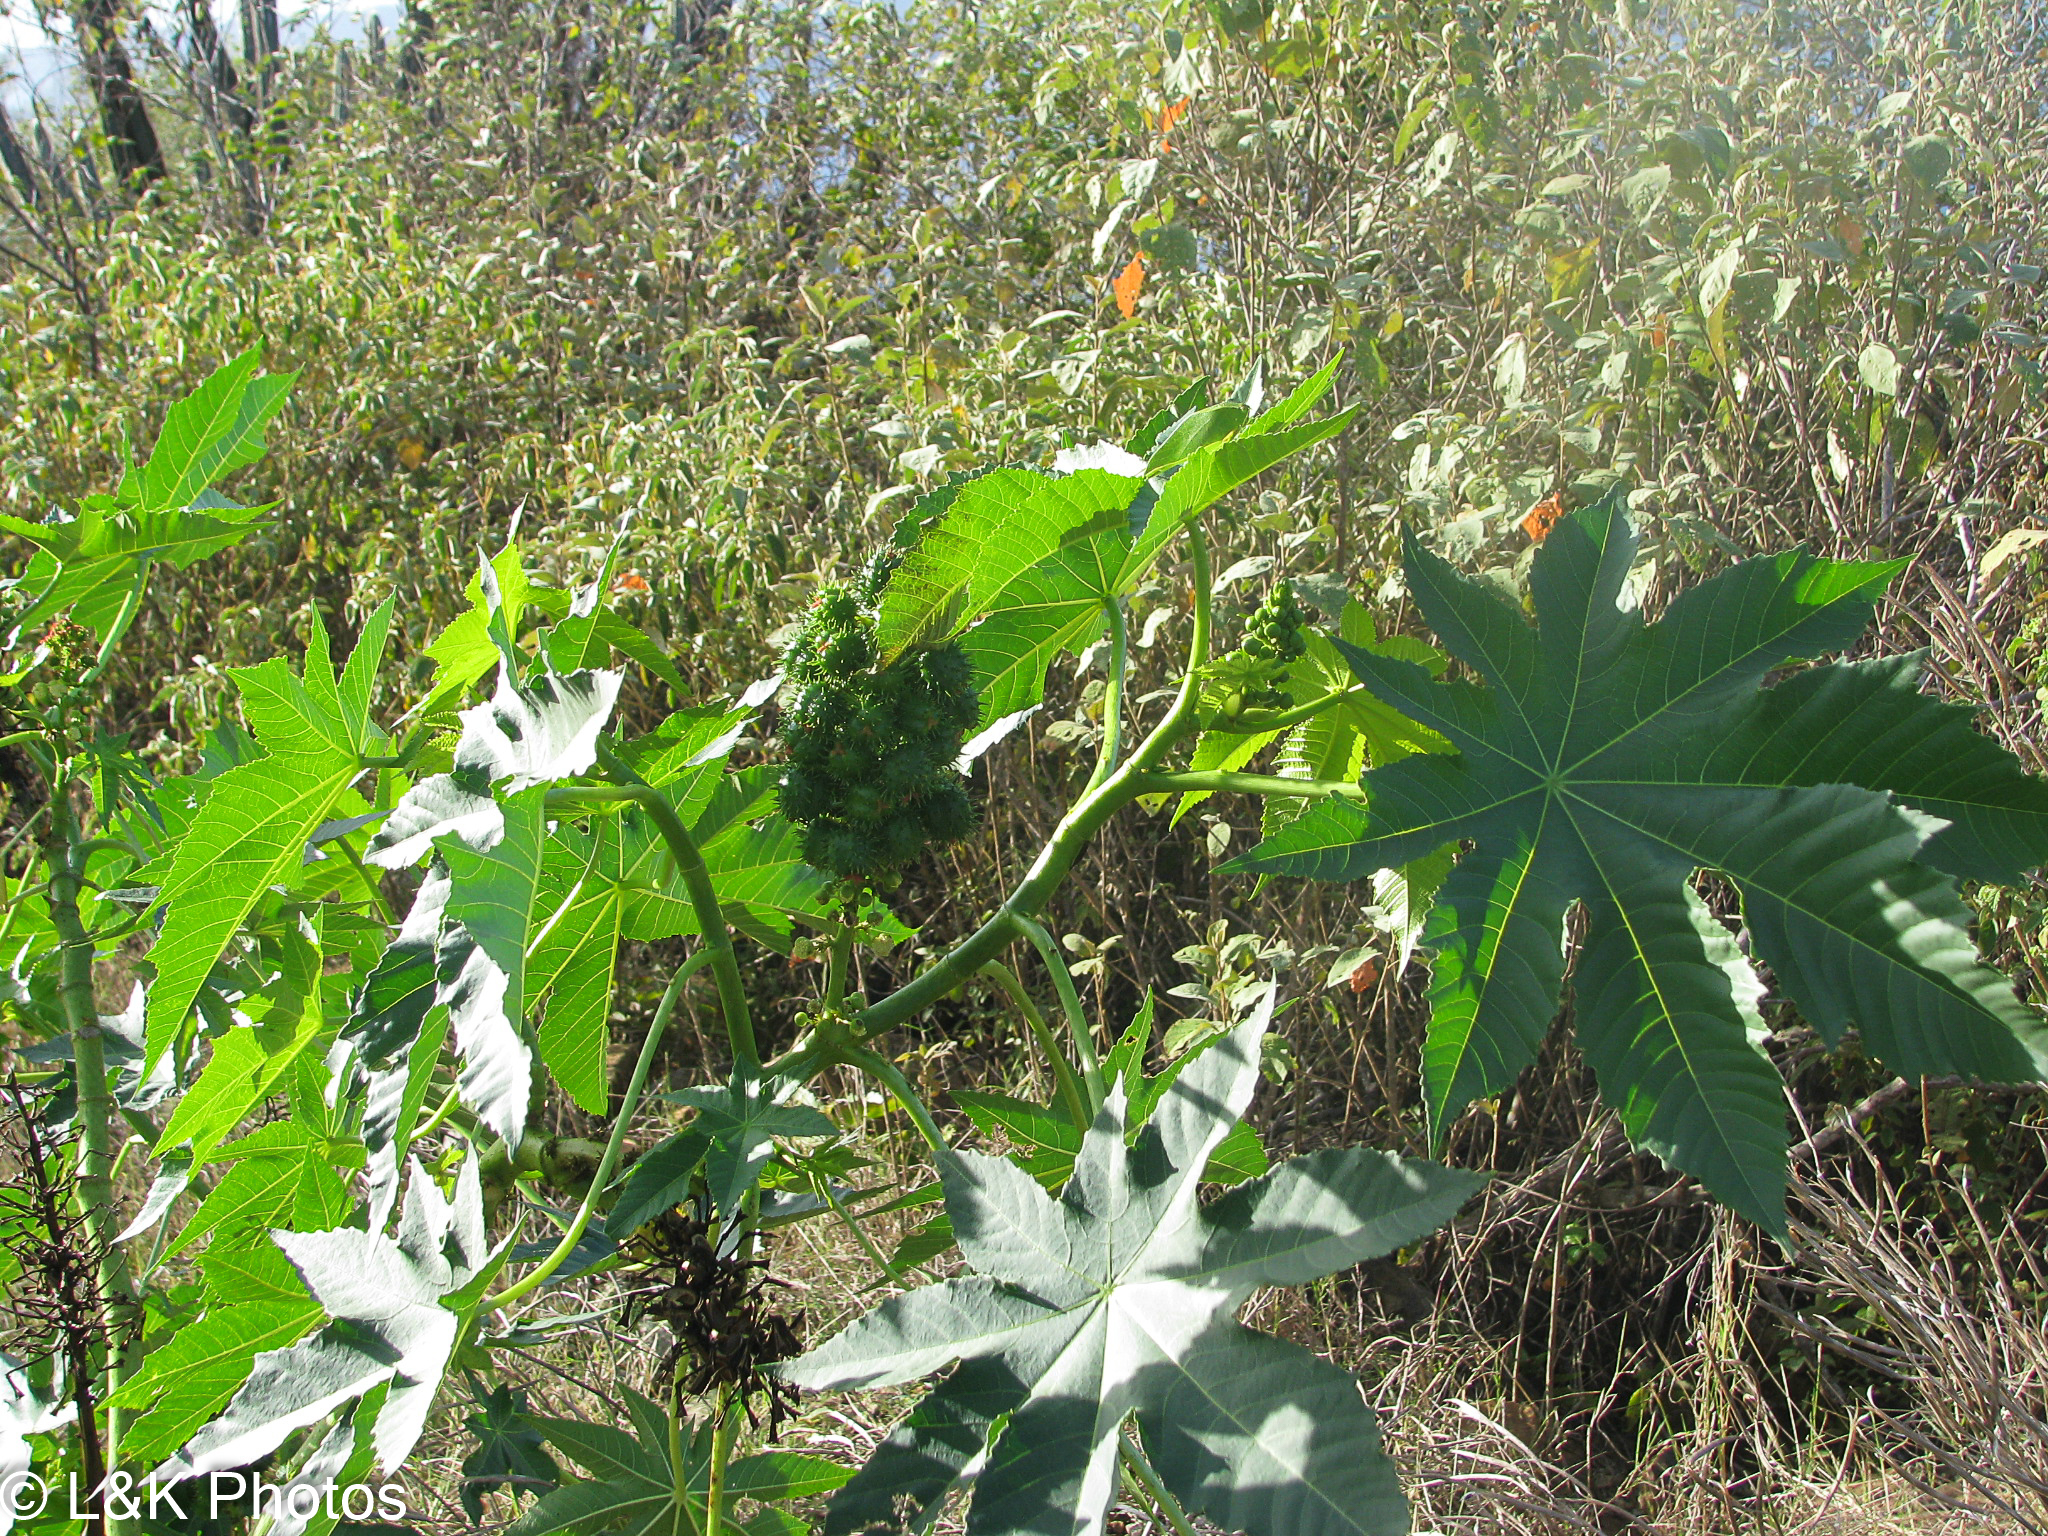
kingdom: Plantae
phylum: Tracheophyta
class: Magnoliopsida
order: Malpighiales
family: Euphorbiaceae
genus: Ricinus
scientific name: Ricinus communis
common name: Castor-oil-plant
